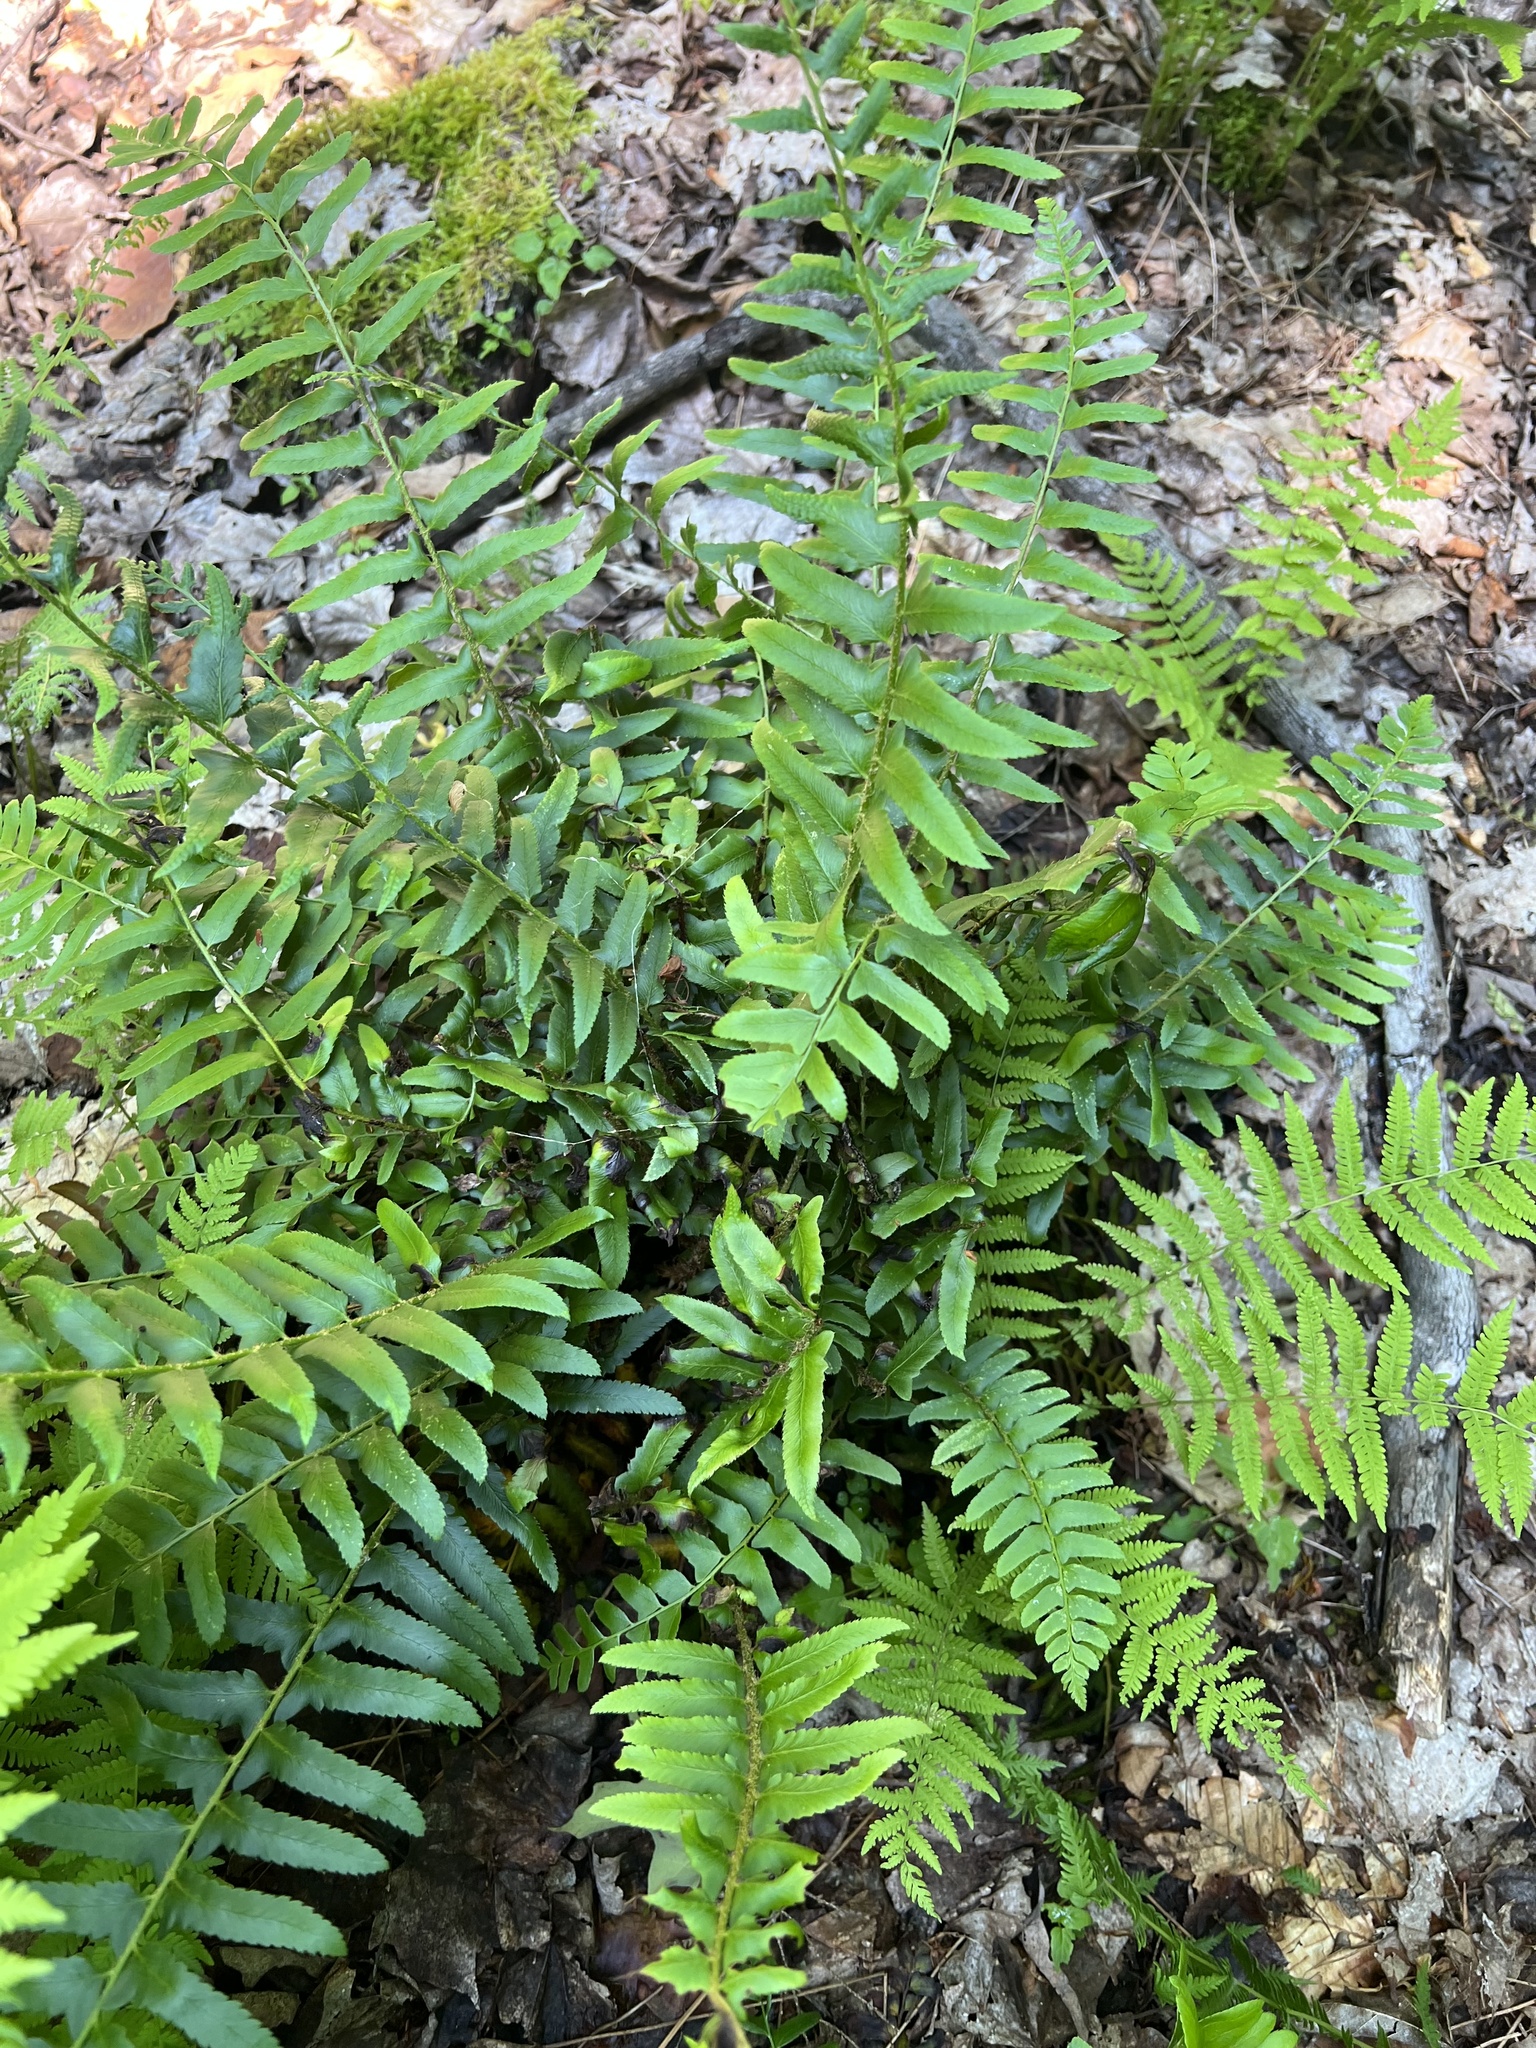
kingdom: Plantae
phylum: Tracheophyta
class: Polypodiopsida
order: Polypodiales
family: Dryopteridaceae
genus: Polystichum
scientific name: Polystichum acrostichoides
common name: Christmas fern
